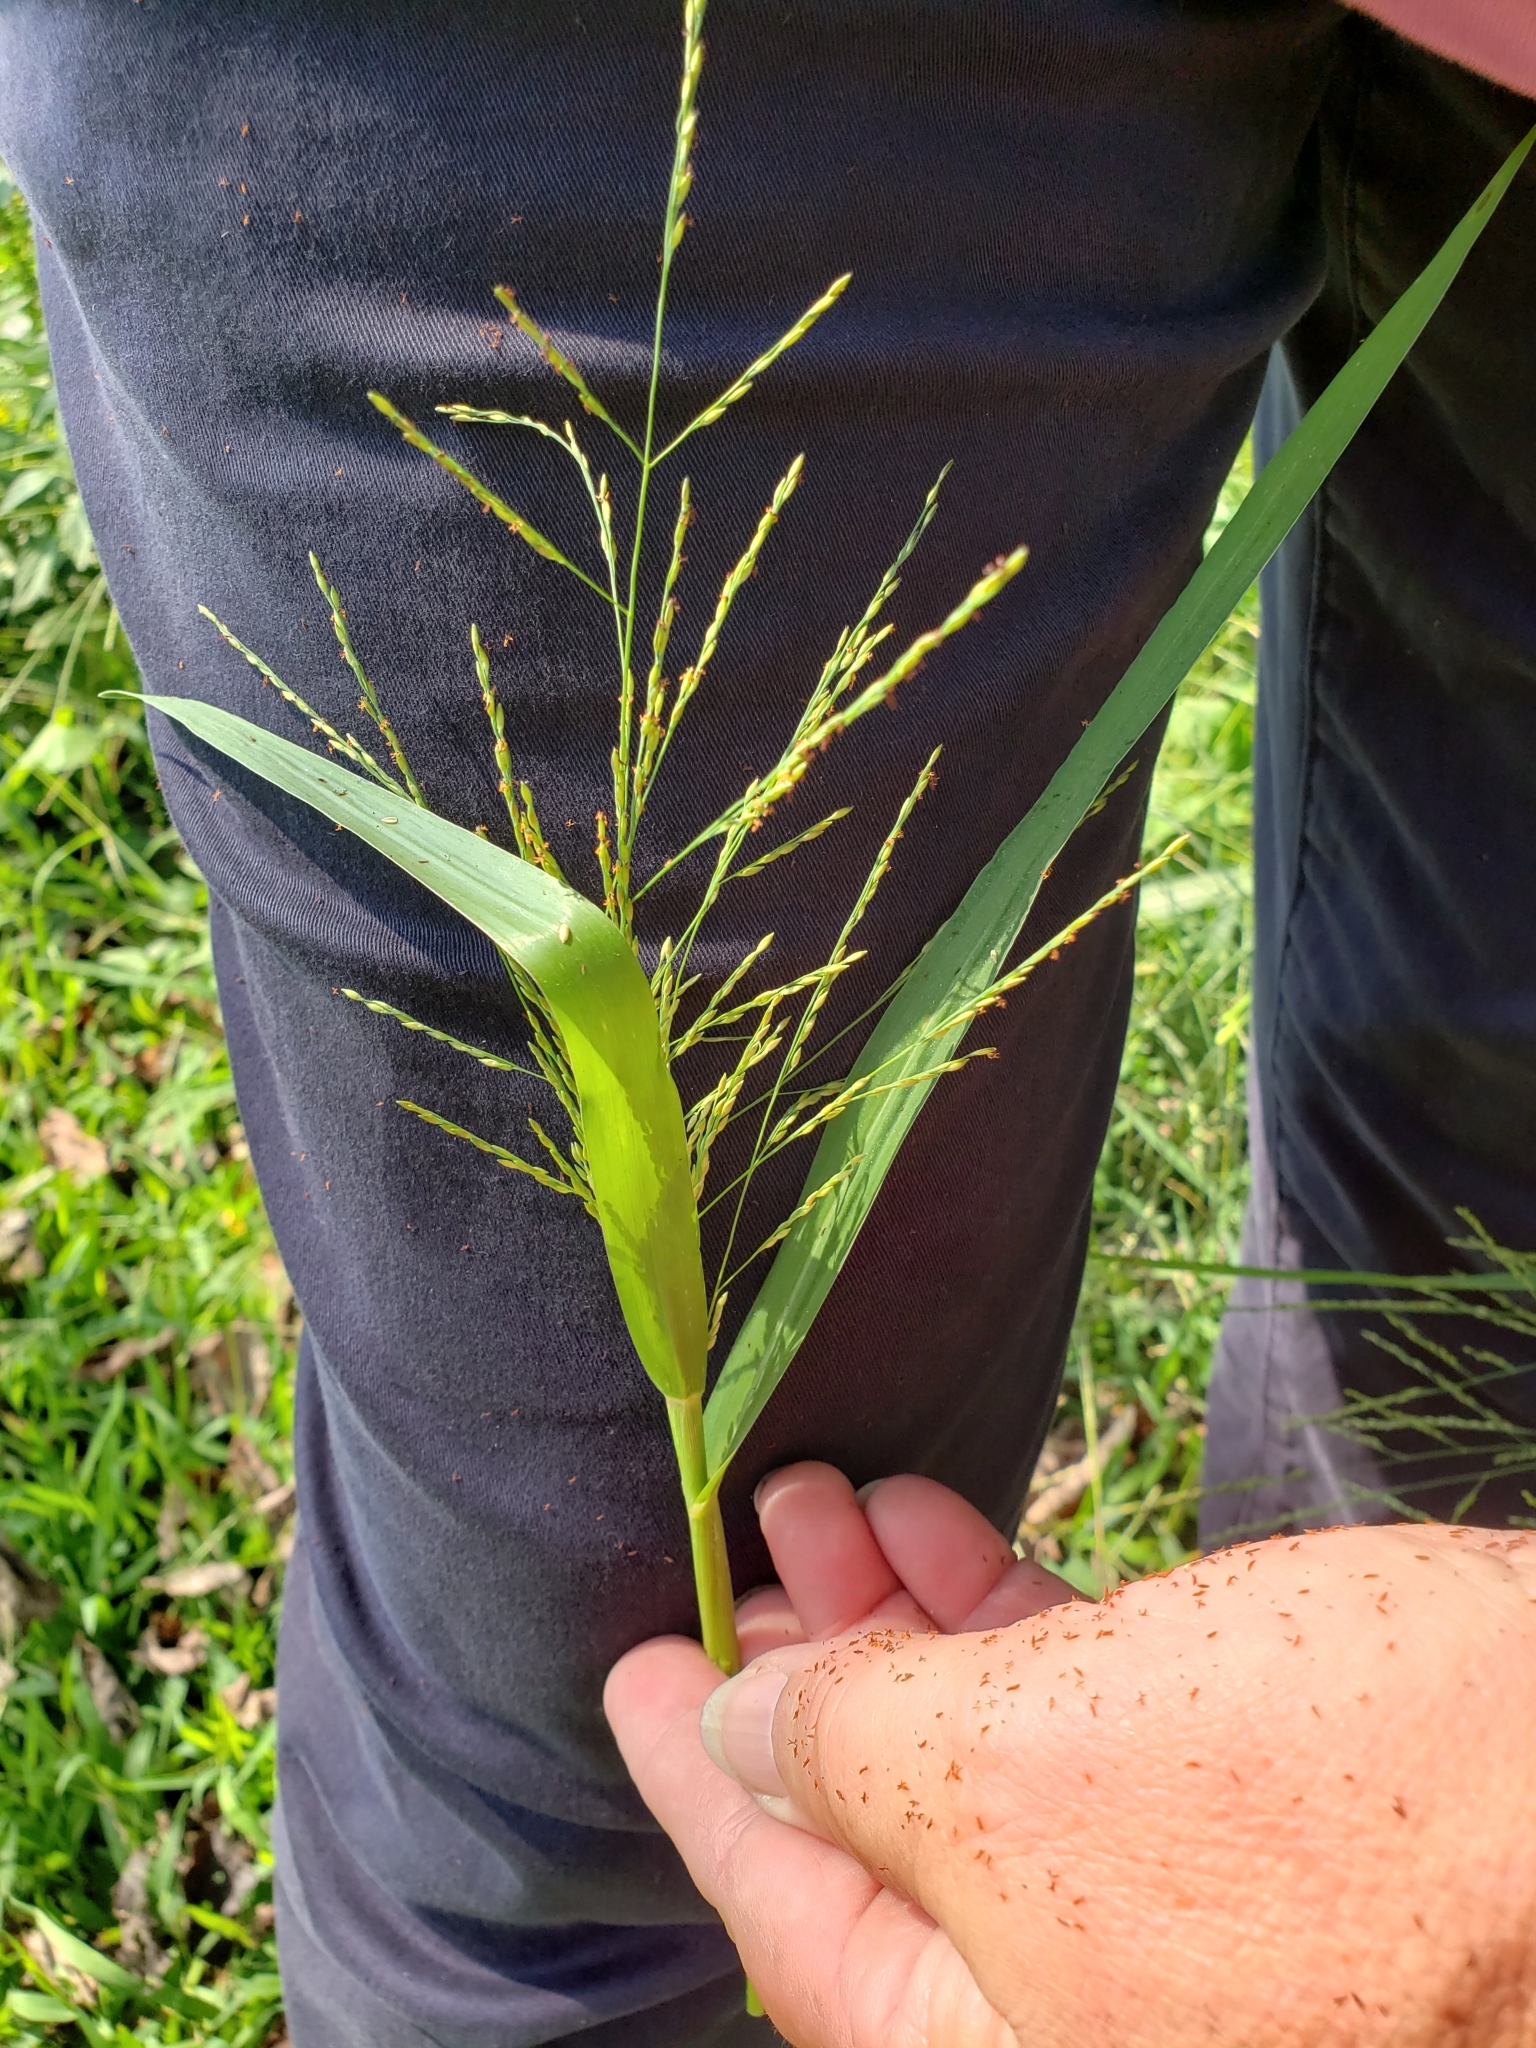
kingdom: Plantae
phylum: Tracheophyta
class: Liliopsida
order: Poales
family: Poaceae
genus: Panicum
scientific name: Panicum dichotomiflorum
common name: Autumn millet
